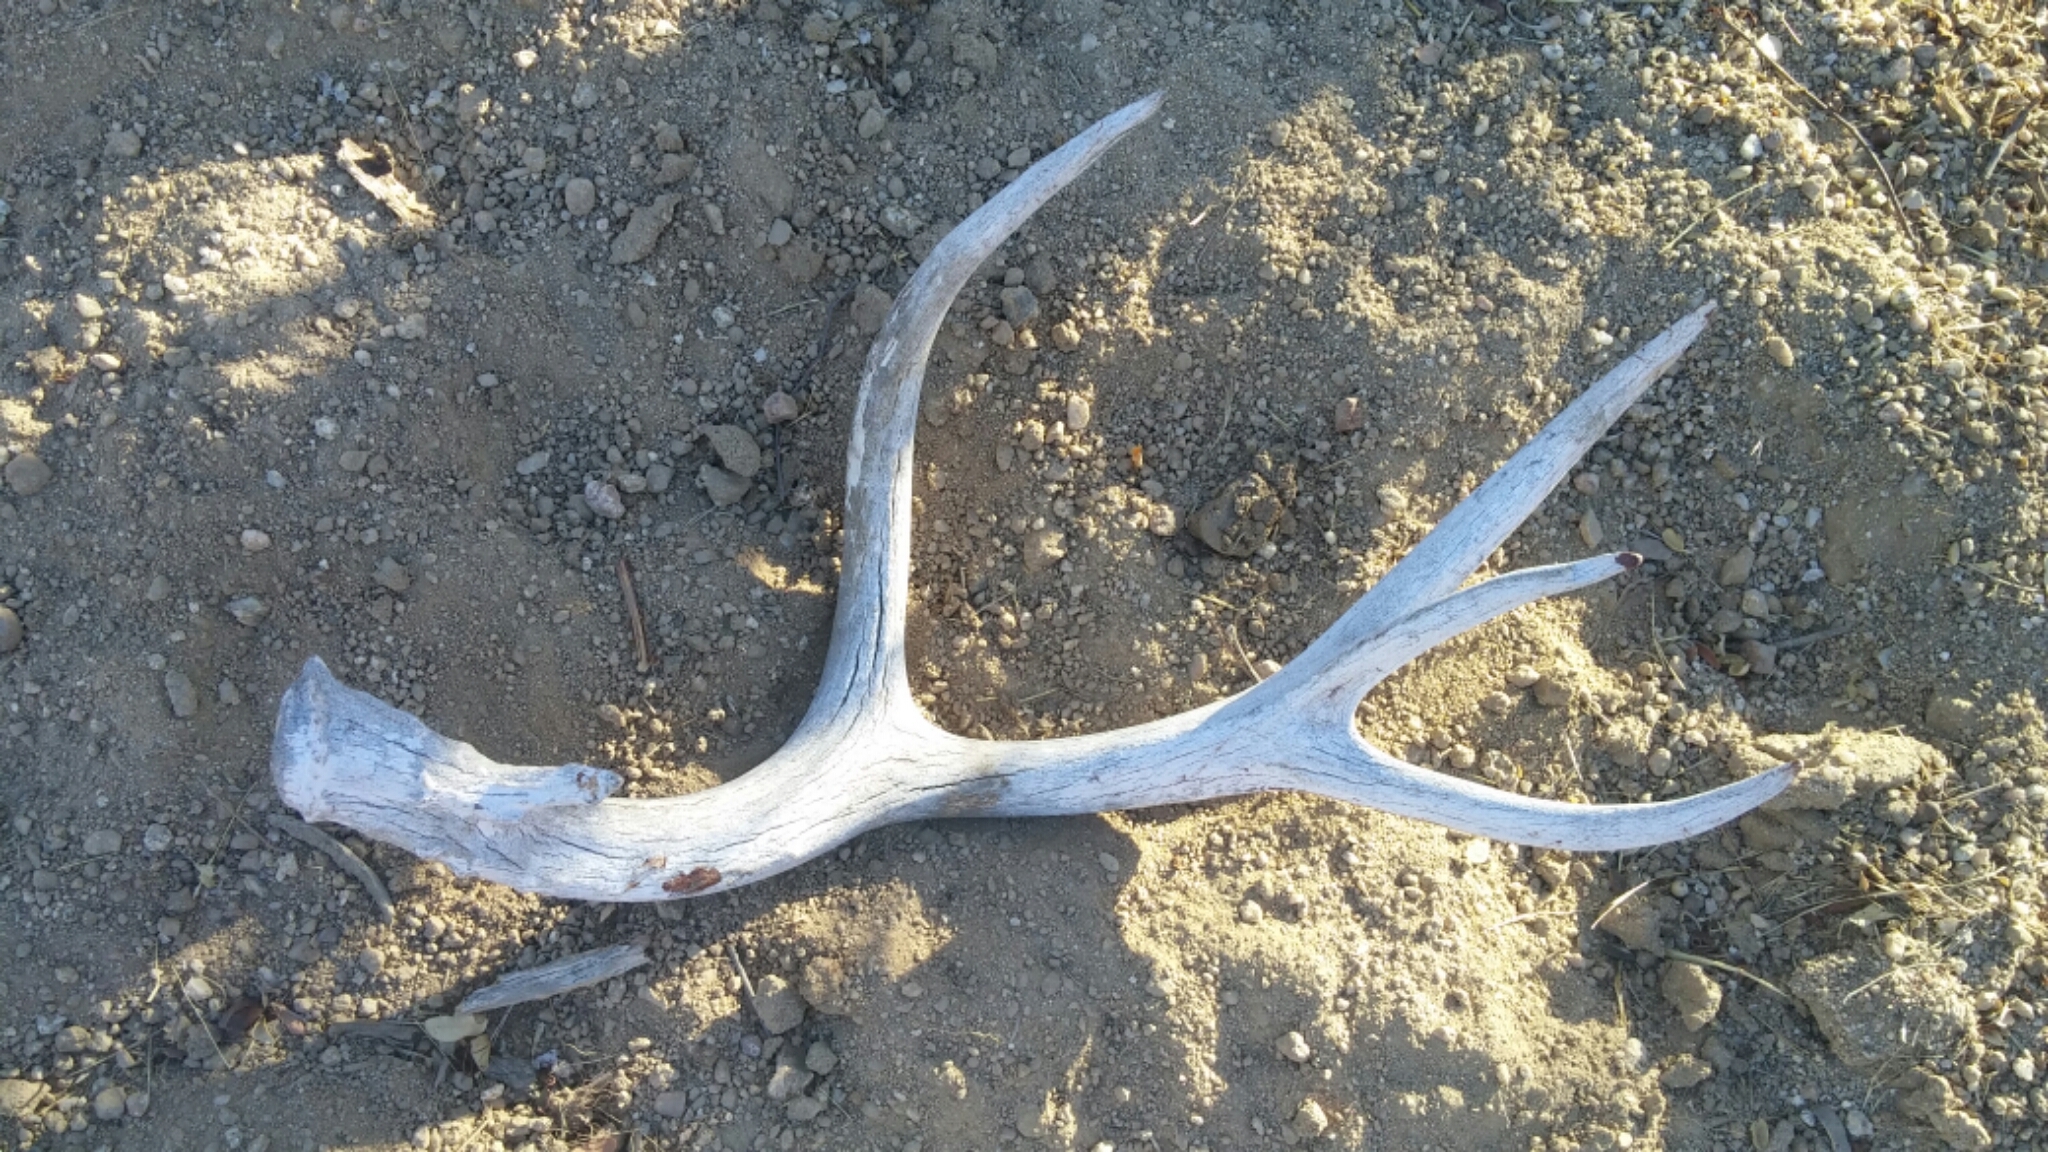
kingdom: Animalia
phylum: Chordata
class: Mammalia
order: Artiodactyla
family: Cervidae
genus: Odocoileus
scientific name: Odocoileus hemionus
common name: Mule deer
